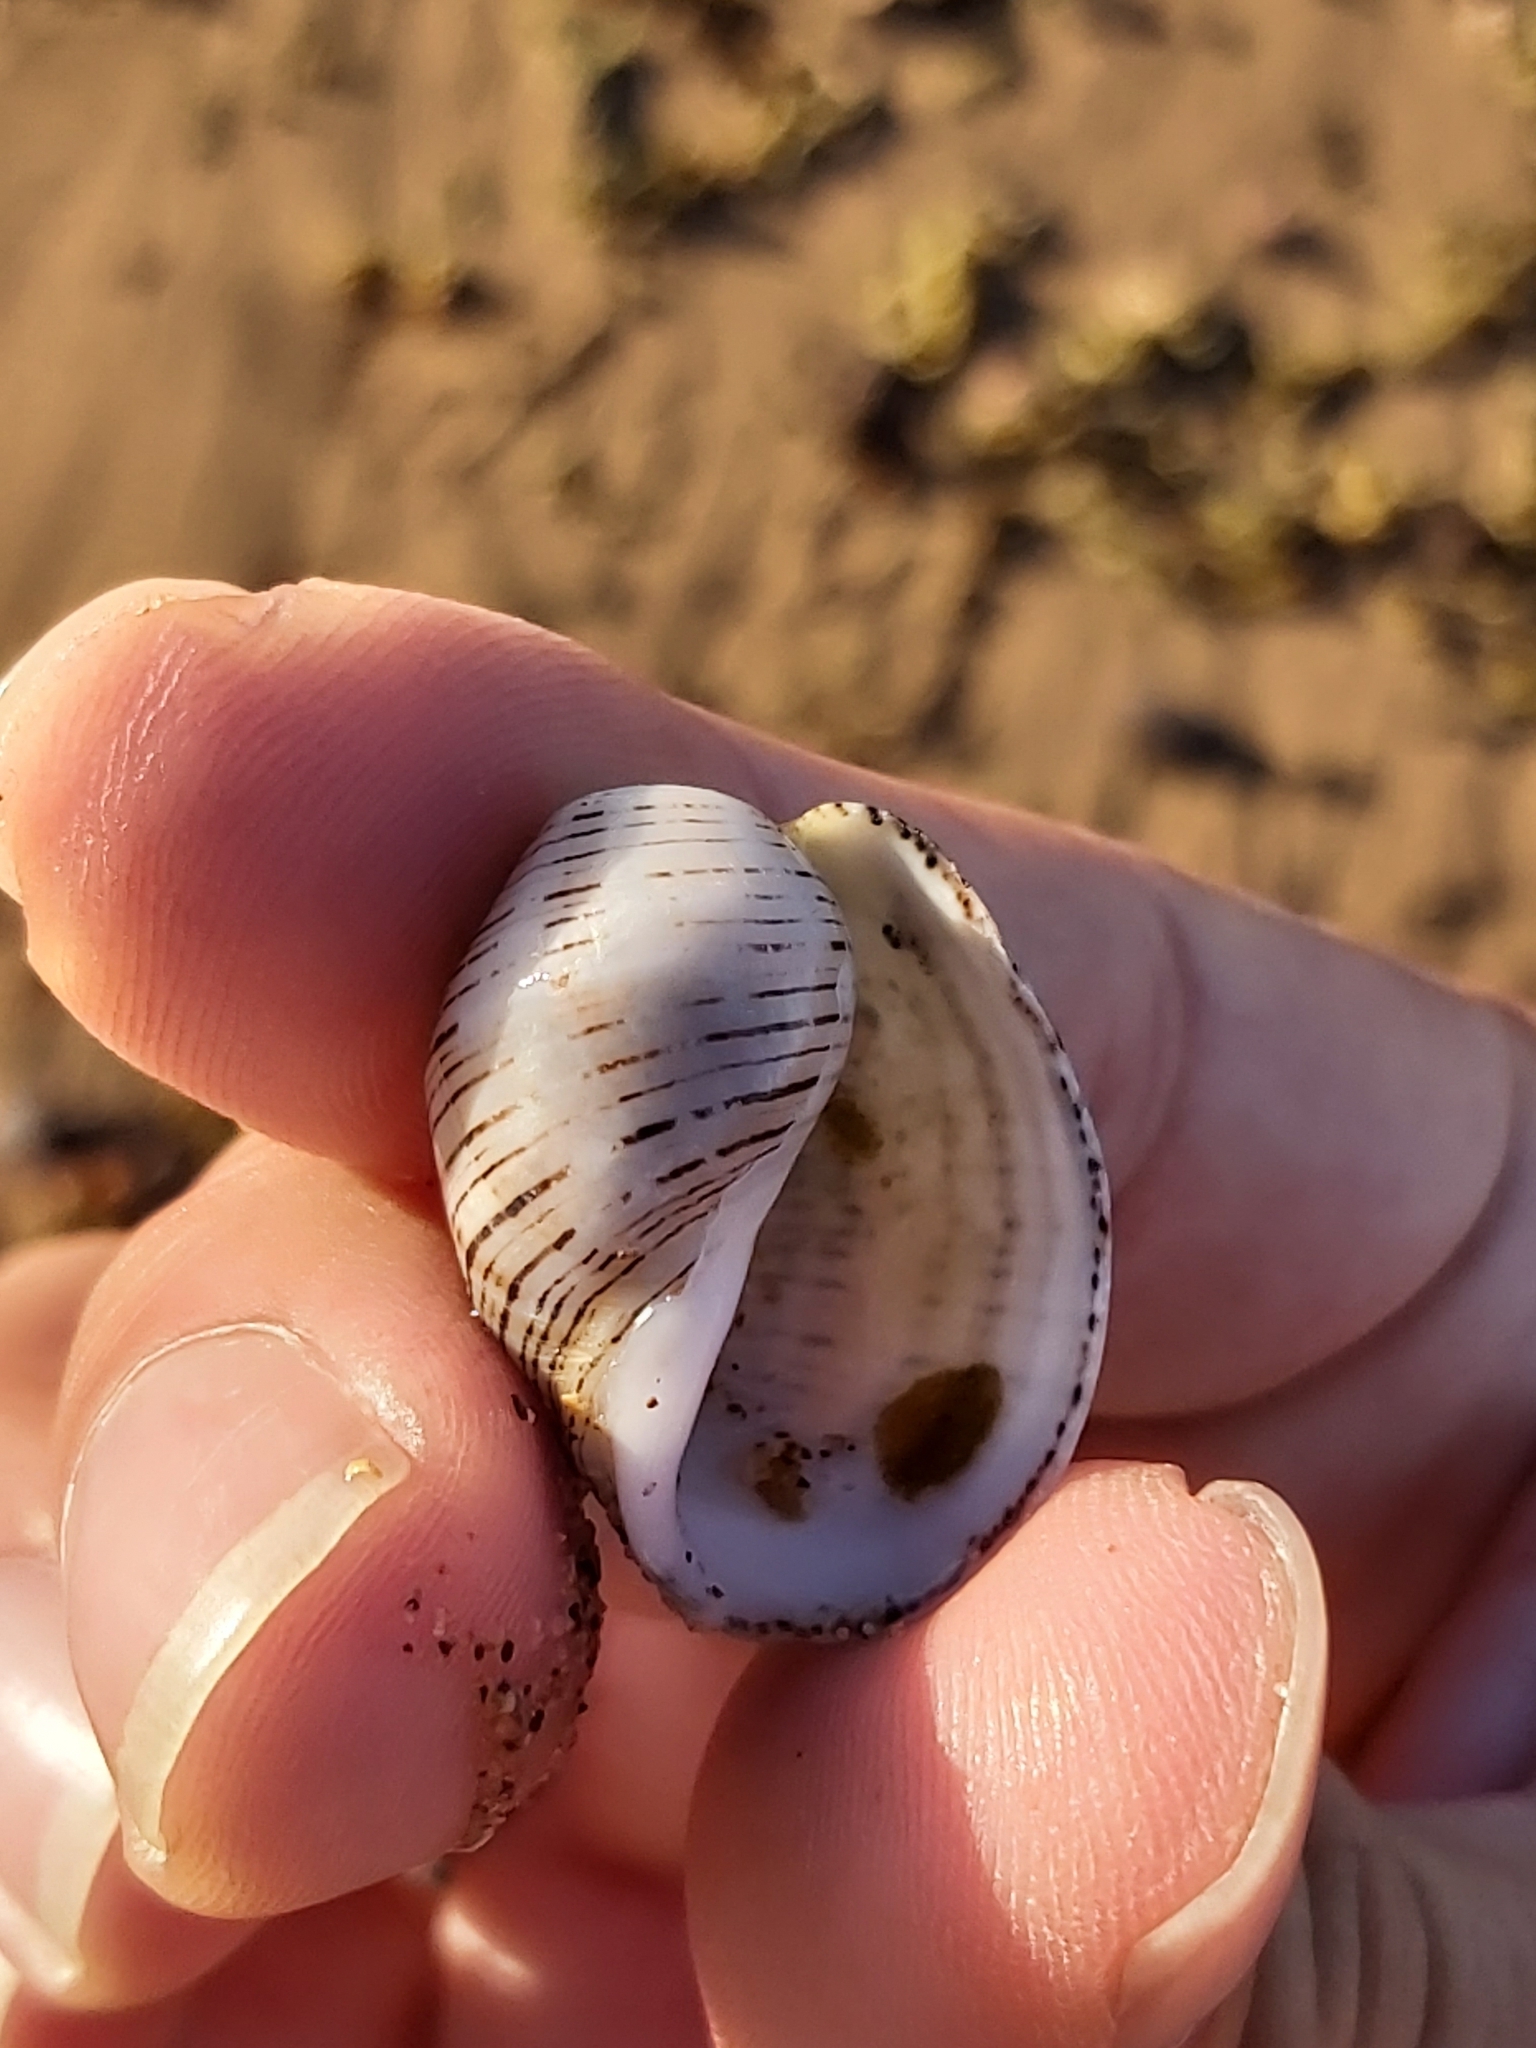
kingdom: Animalia
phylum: Mollusca
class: Gastropoda
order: Cephalaspidea
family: Aplustridae
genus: Hydatina
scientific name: Hydatina physis
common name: Brown-line paperbubble
